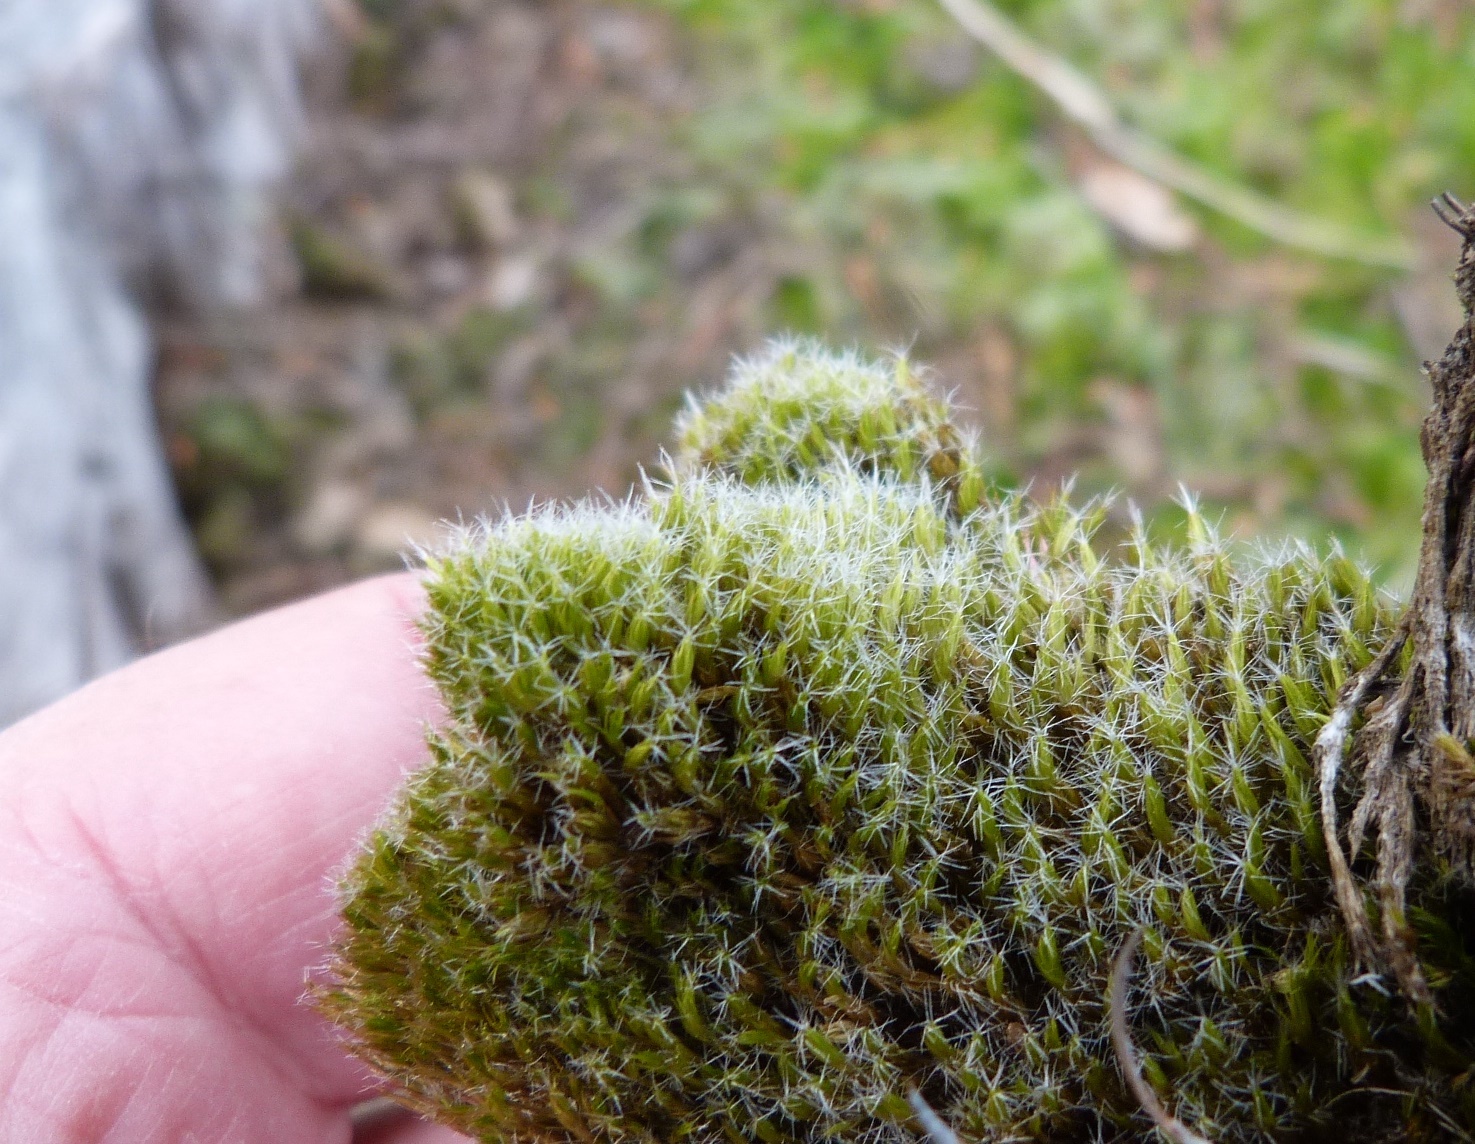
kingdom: Plantae
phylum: Bryophyta
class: Bryopsida
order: Dicranales
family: Leucobryaceae
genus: Campylopus
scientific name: Campylopus introflexus
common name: Heath star moss
